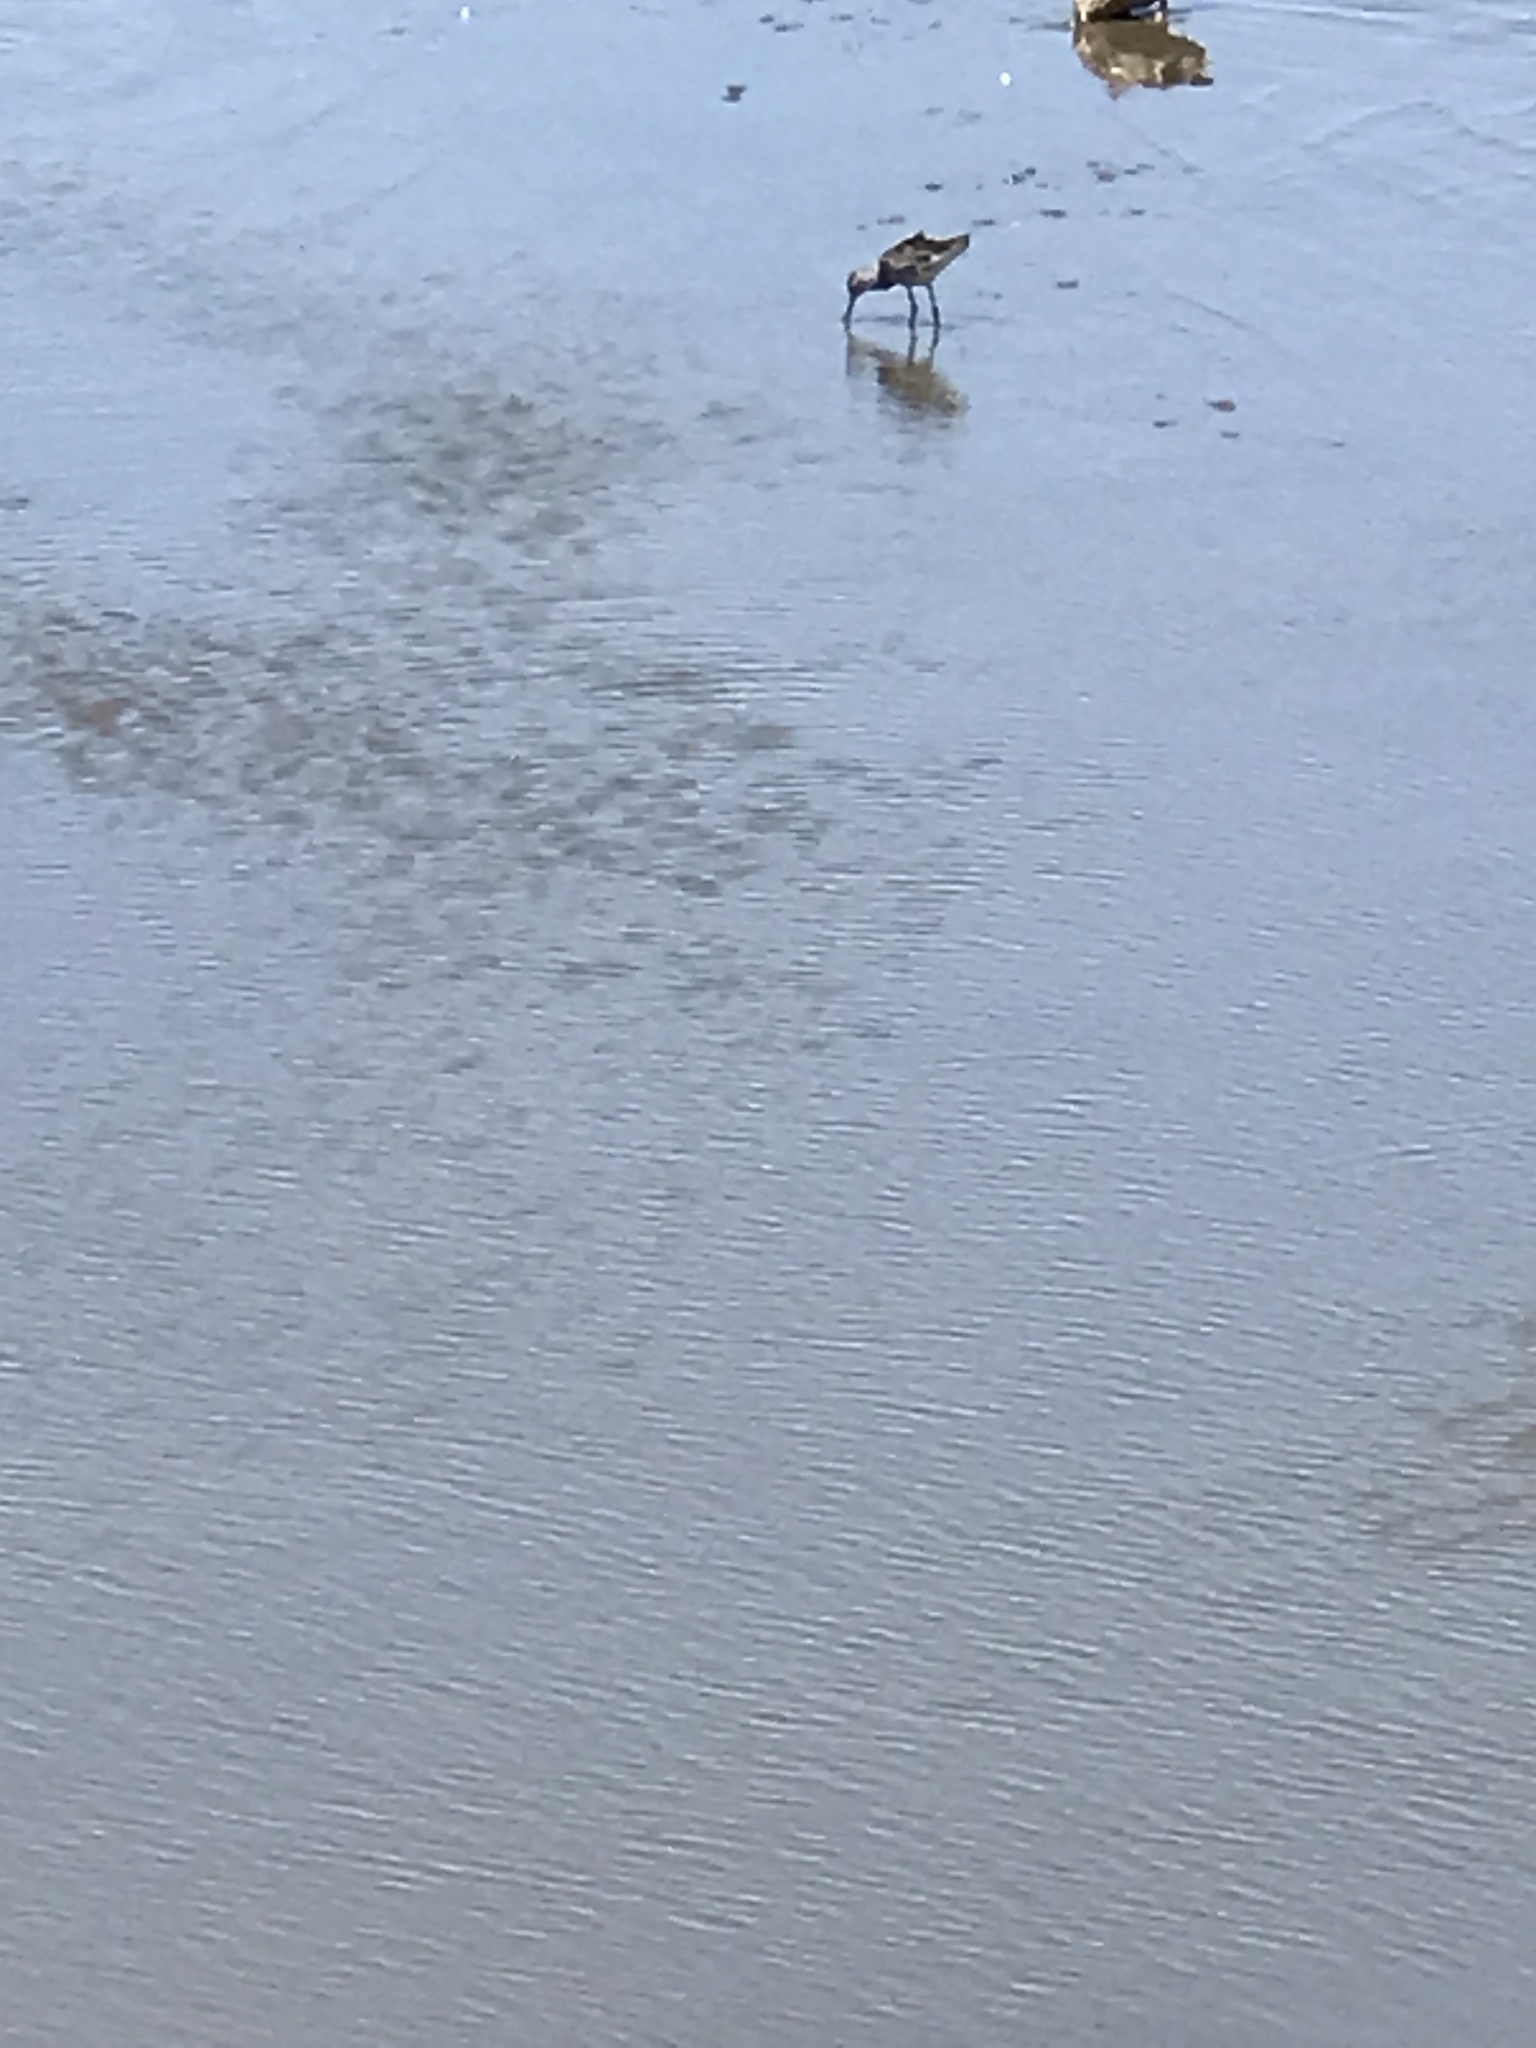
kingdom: Animalia
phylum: Chordata
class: Aves
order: Charadriiformes
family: Scolopacidae
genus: Tringa
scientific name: Tringa melanoleuca
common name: Greater yellowlegs
